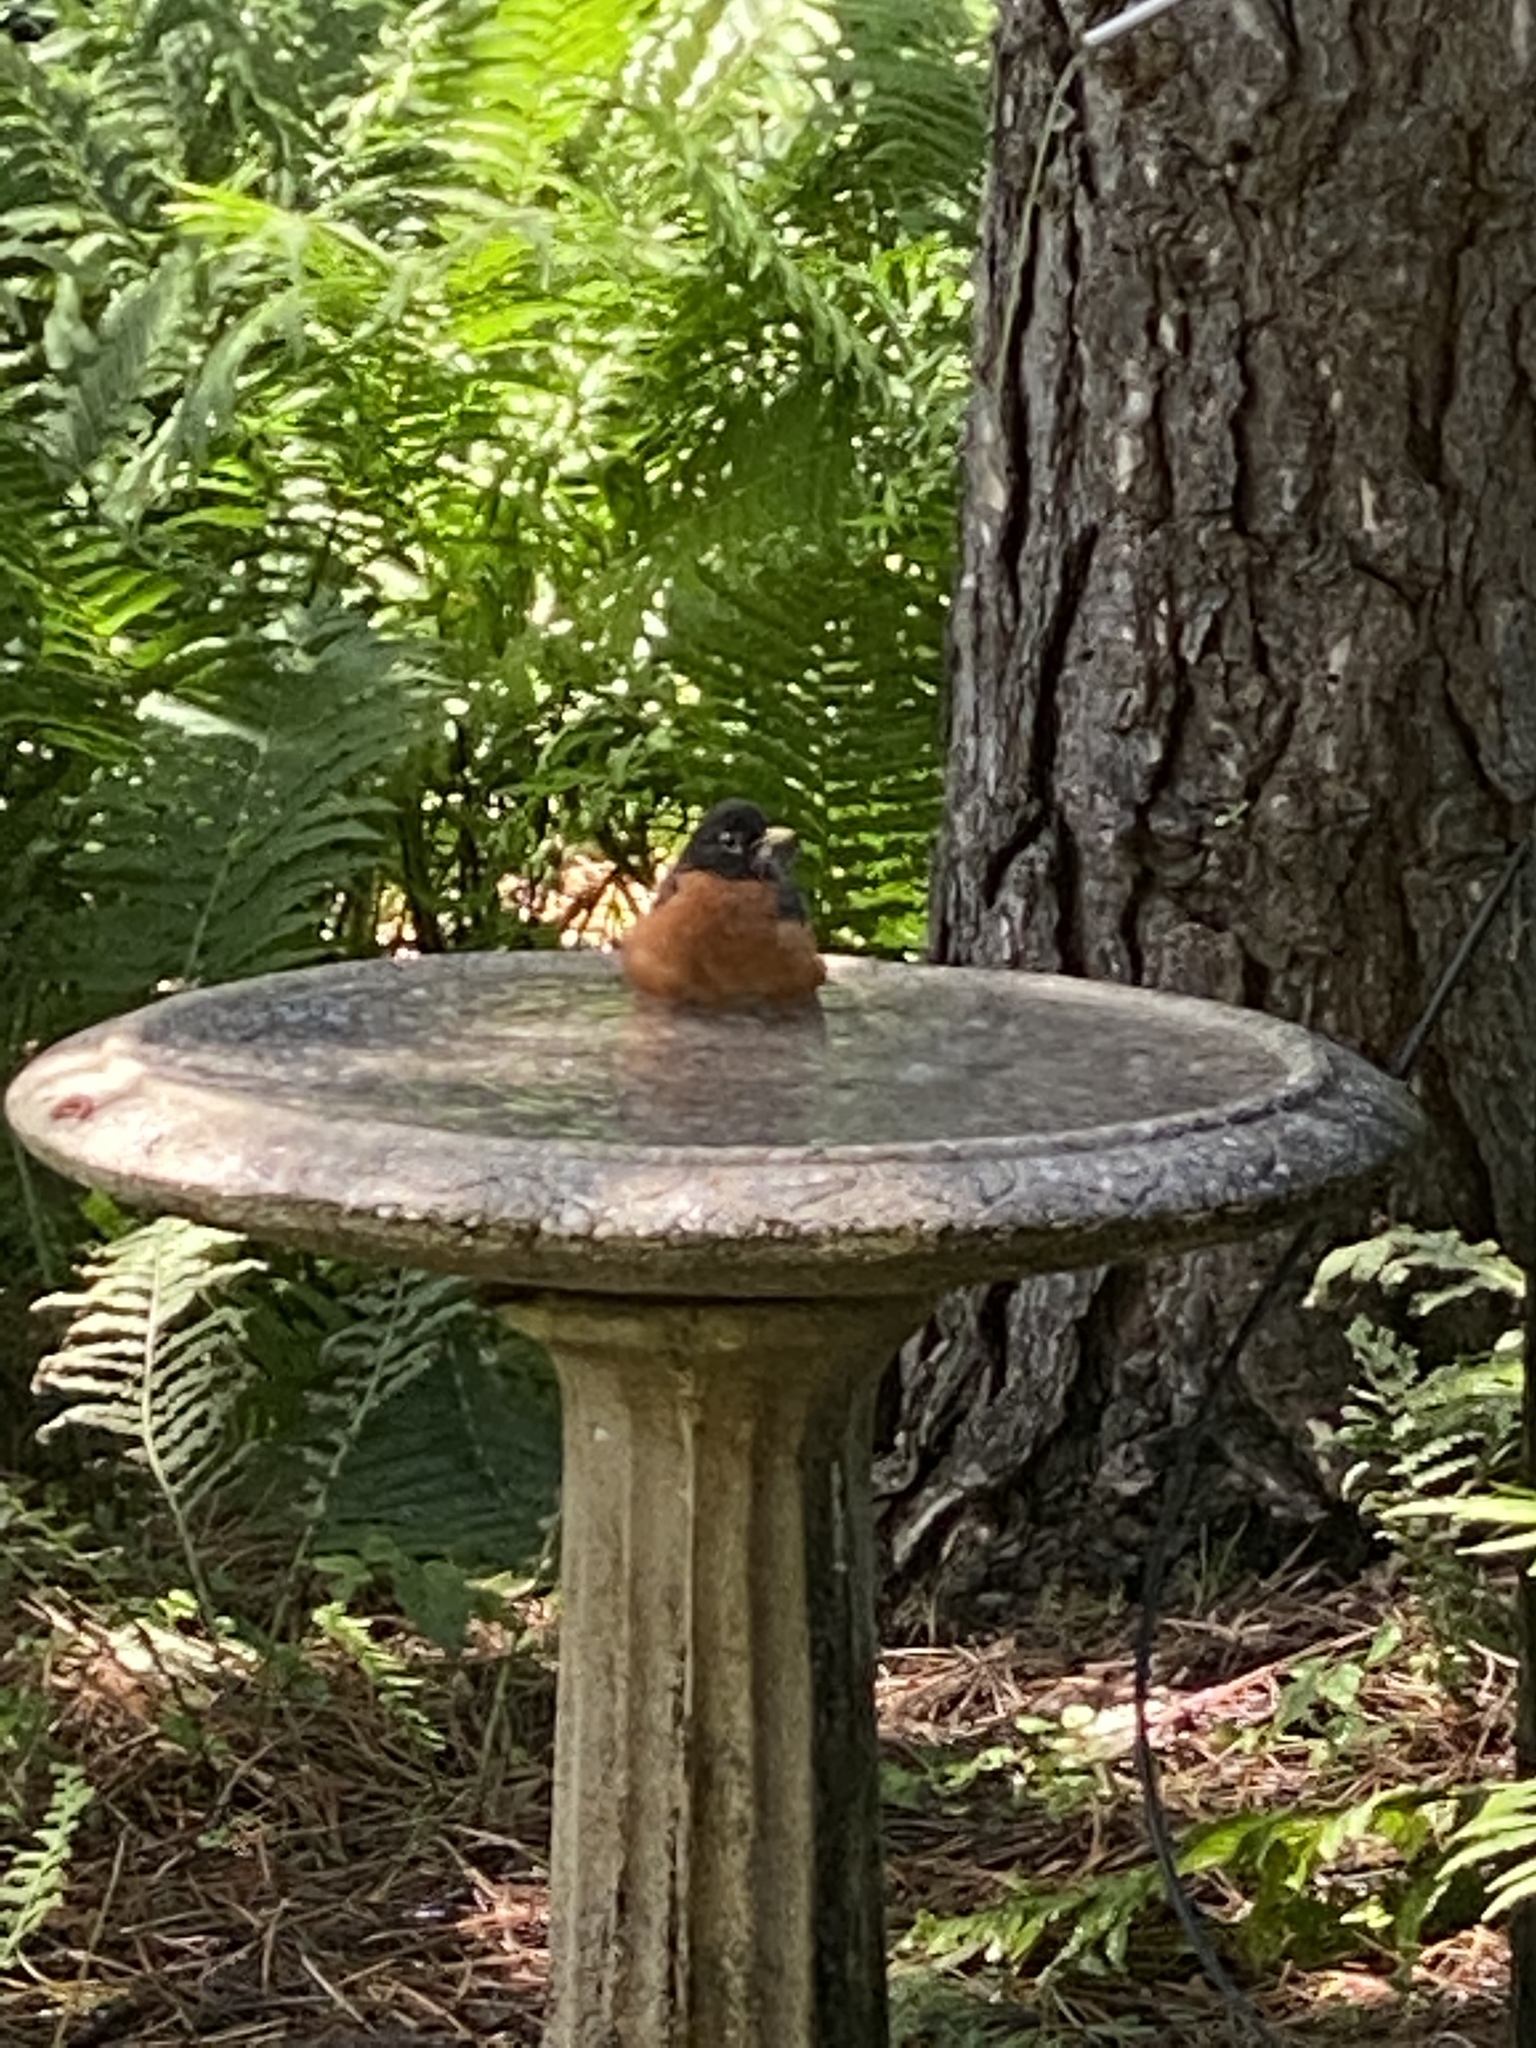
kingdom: Animalia
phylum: Chordata
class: Aves
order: Passeriformes
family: Turdidae
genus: Turdus
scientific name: Turdus migratorius
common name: American robin
